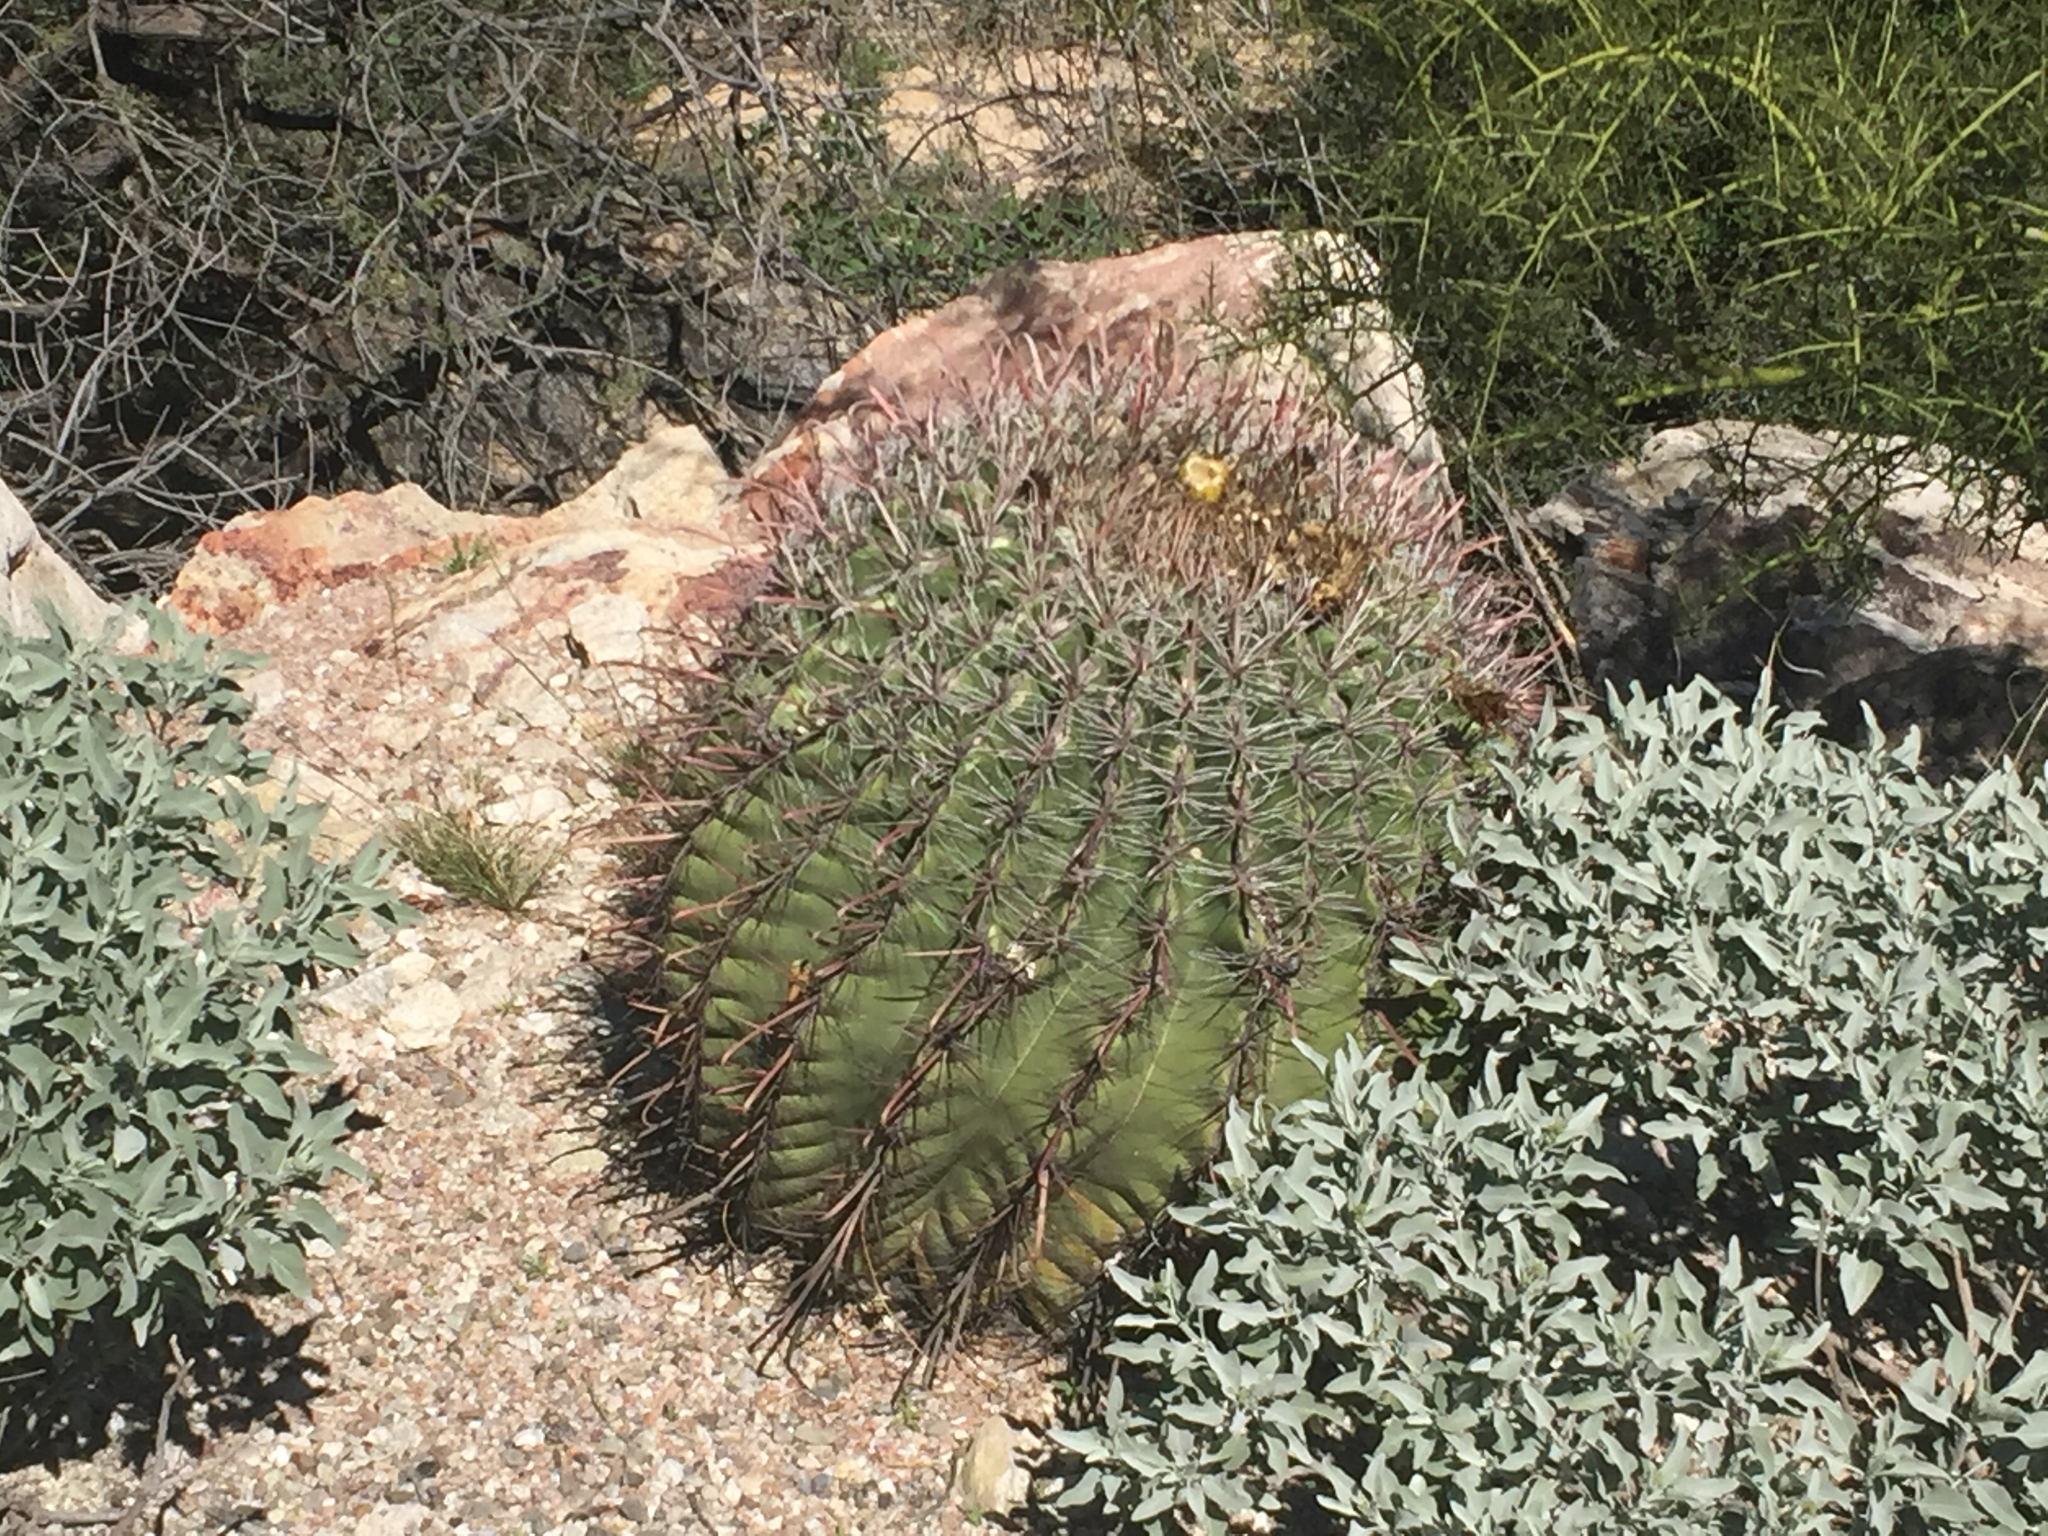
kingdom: Plantae
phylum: Tracheophyta
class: Magnoliopsida
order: Caryophyllales
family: Cactaceae
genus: Ferocactus
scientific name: Ferocactus wislizeni
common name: Candy barrel cactus
